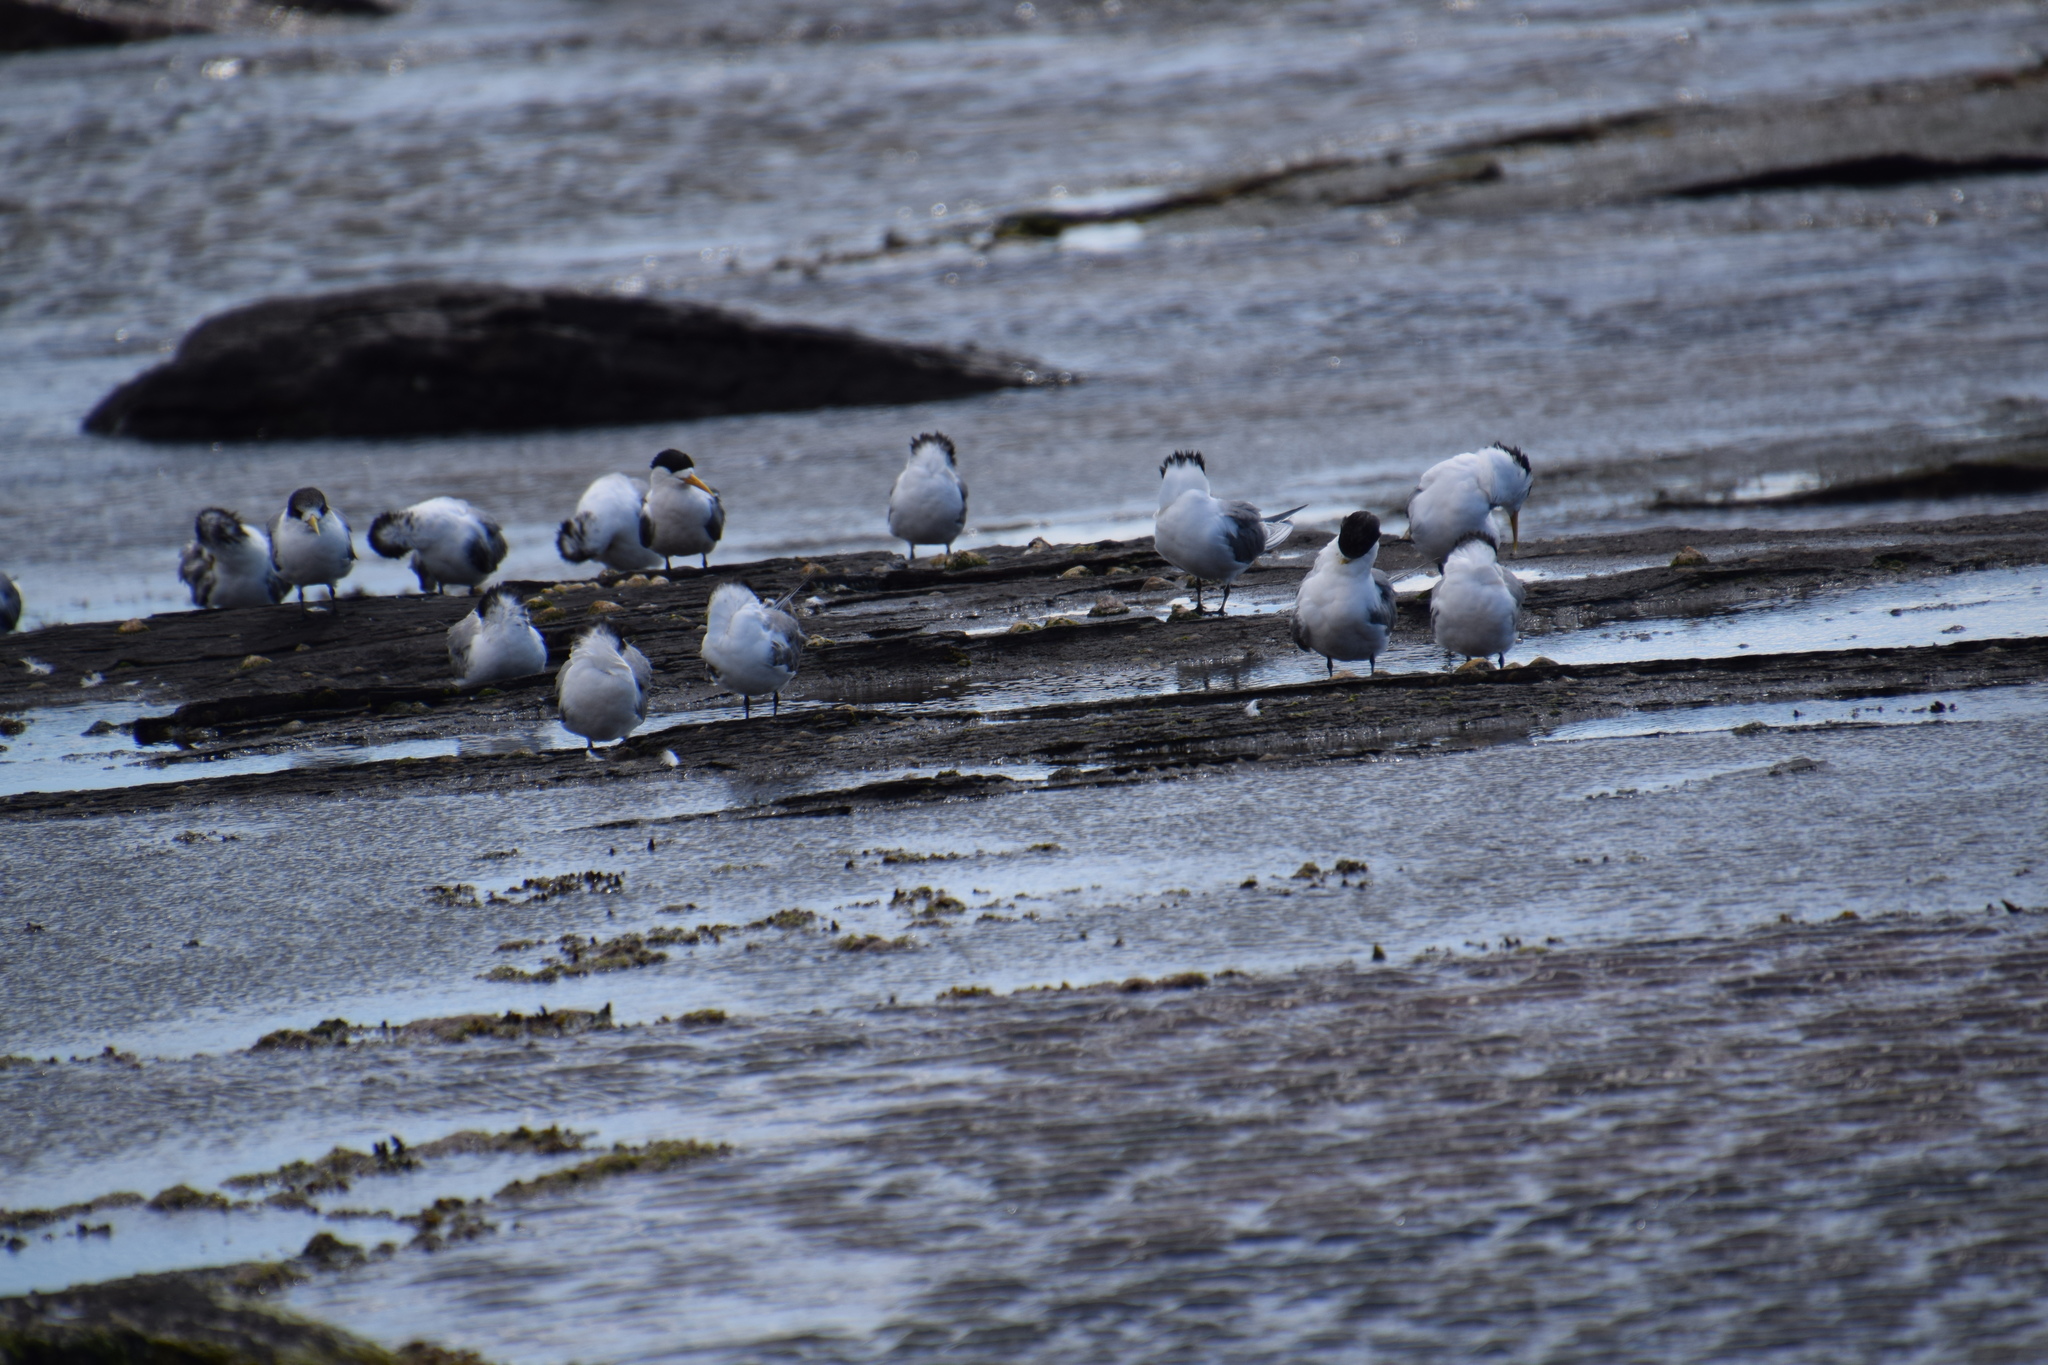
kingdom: Animalia
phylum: Chordata
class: Aves
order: Charadriiformes
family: Laridae
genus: Thalasseus
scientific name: Thalasseus bergii
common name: Greater crested tern
